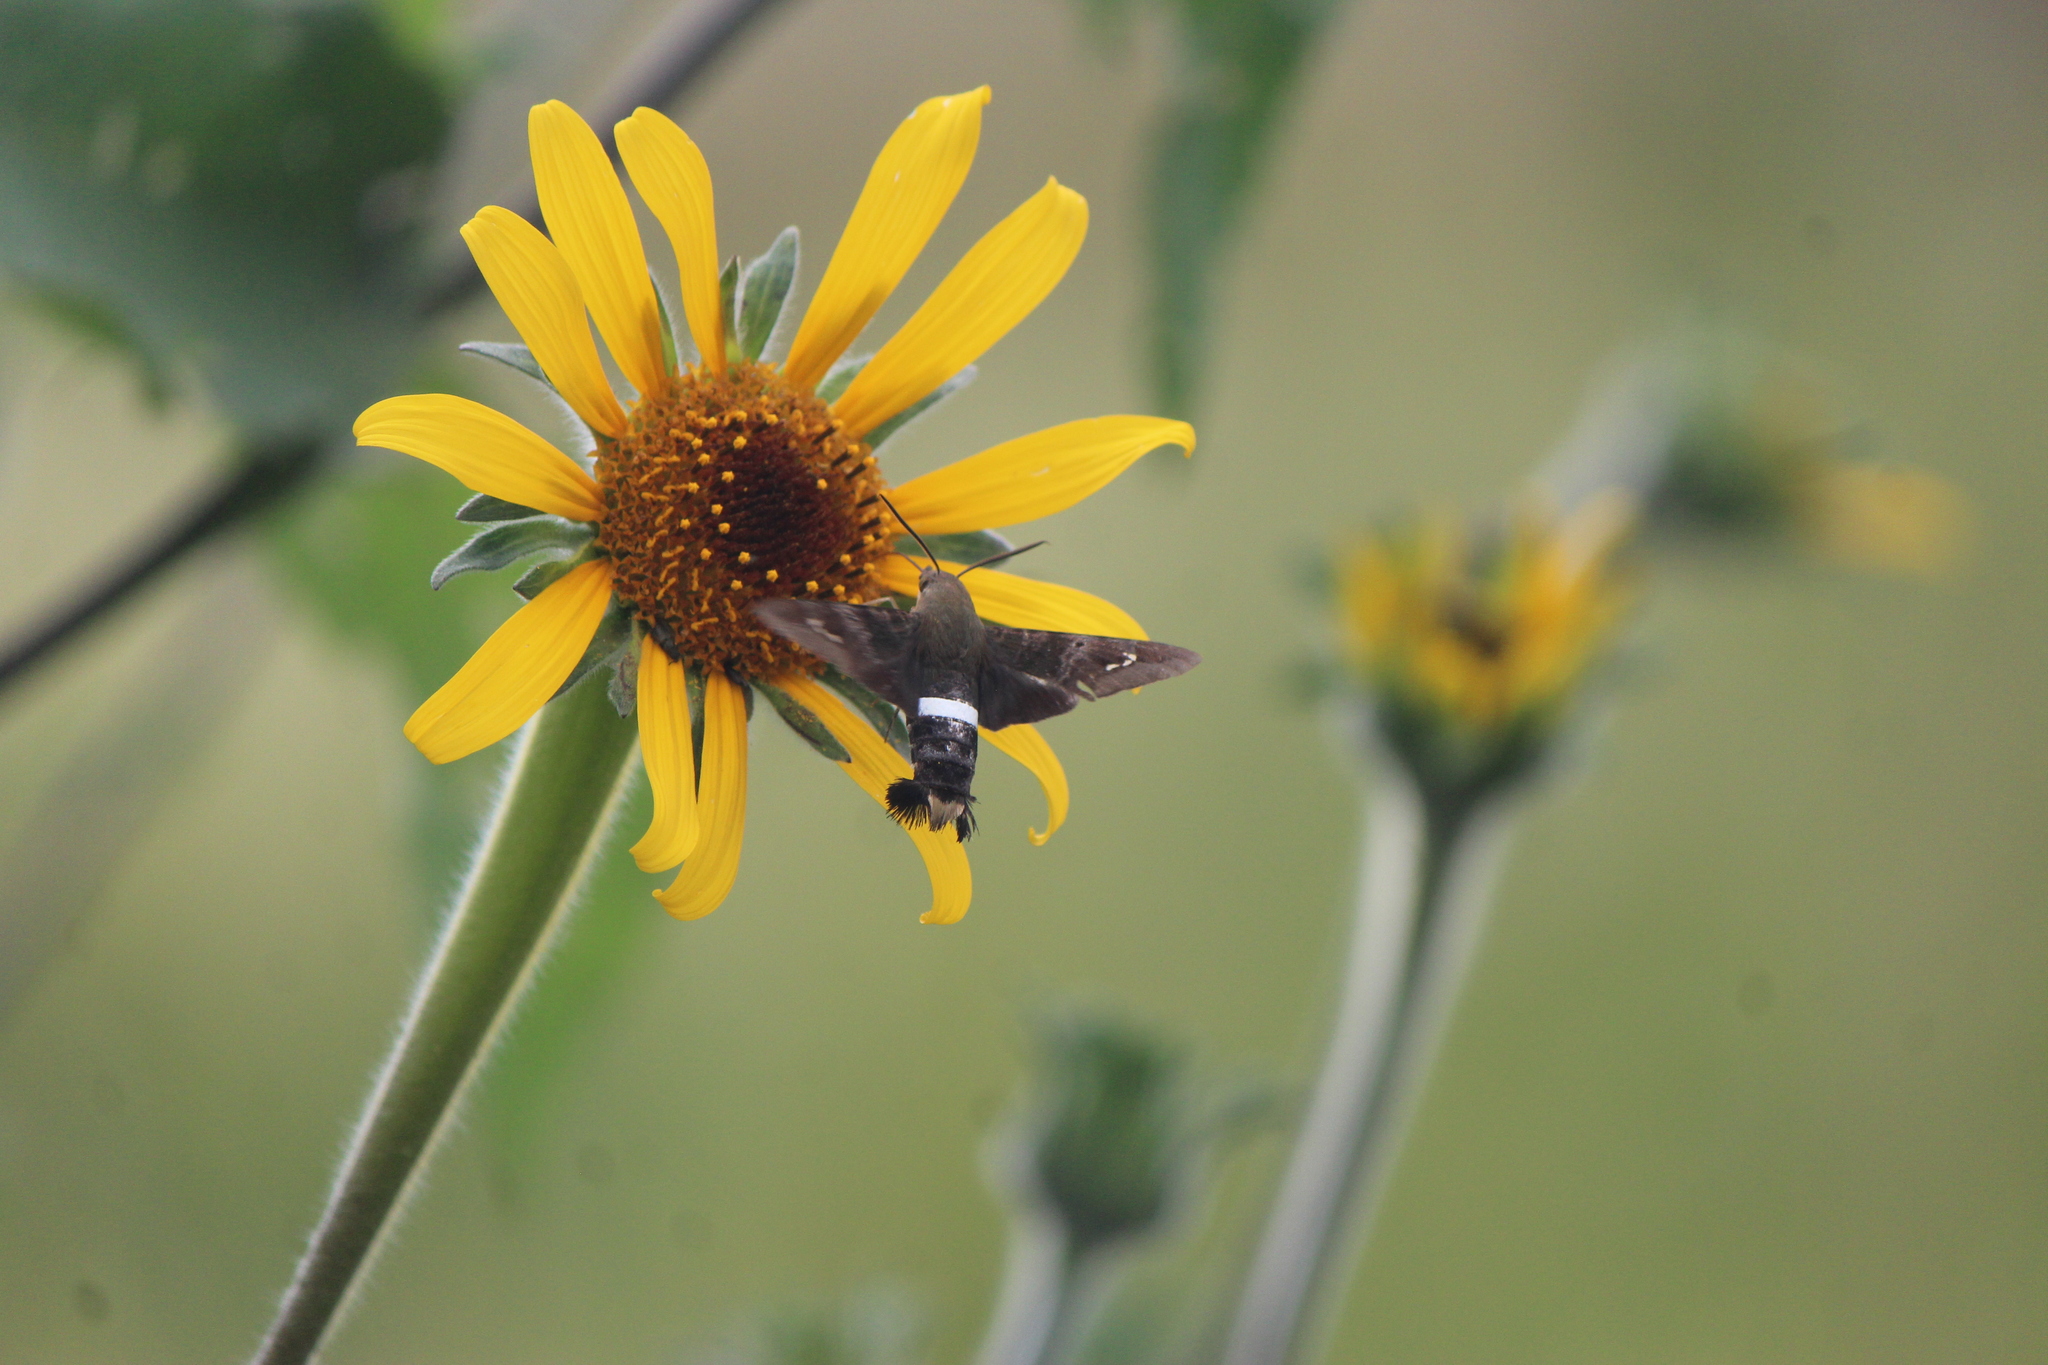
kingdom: Animalia
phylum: Arthropoda
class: Insecta
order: Lepidoptera
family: Sphingidae
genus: Aellopos
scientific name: Aellopos clavipes
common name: Clavipes sphinx
